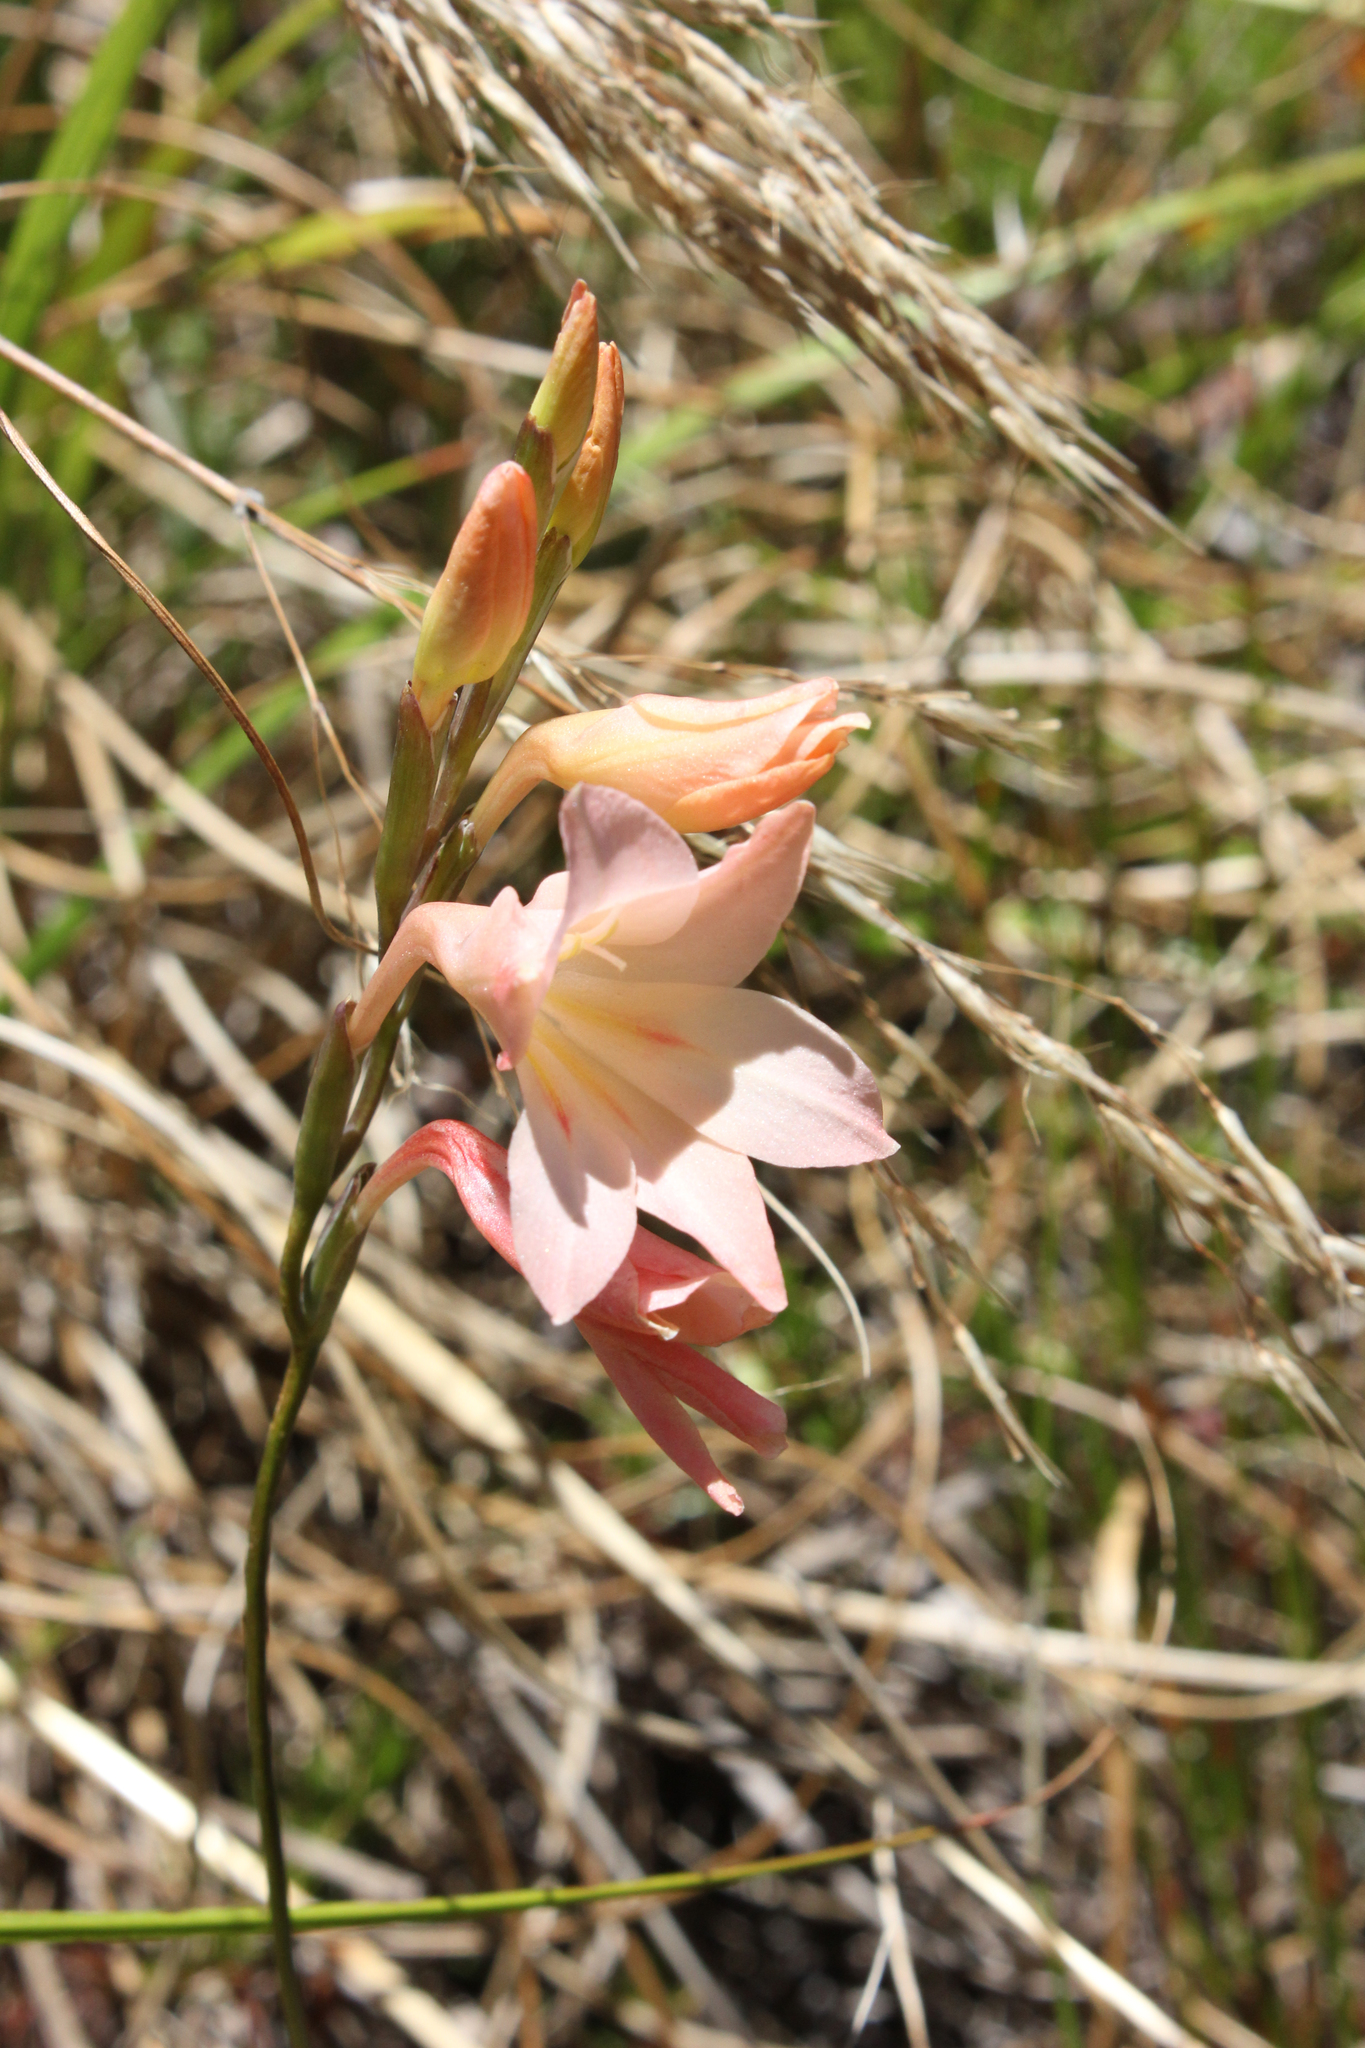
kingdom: Plantae
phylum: Tracheophyta
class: Liliopsida
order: Asparagales
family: Iridaceae
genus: Gladiolus
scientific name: Gladiolus monticola
